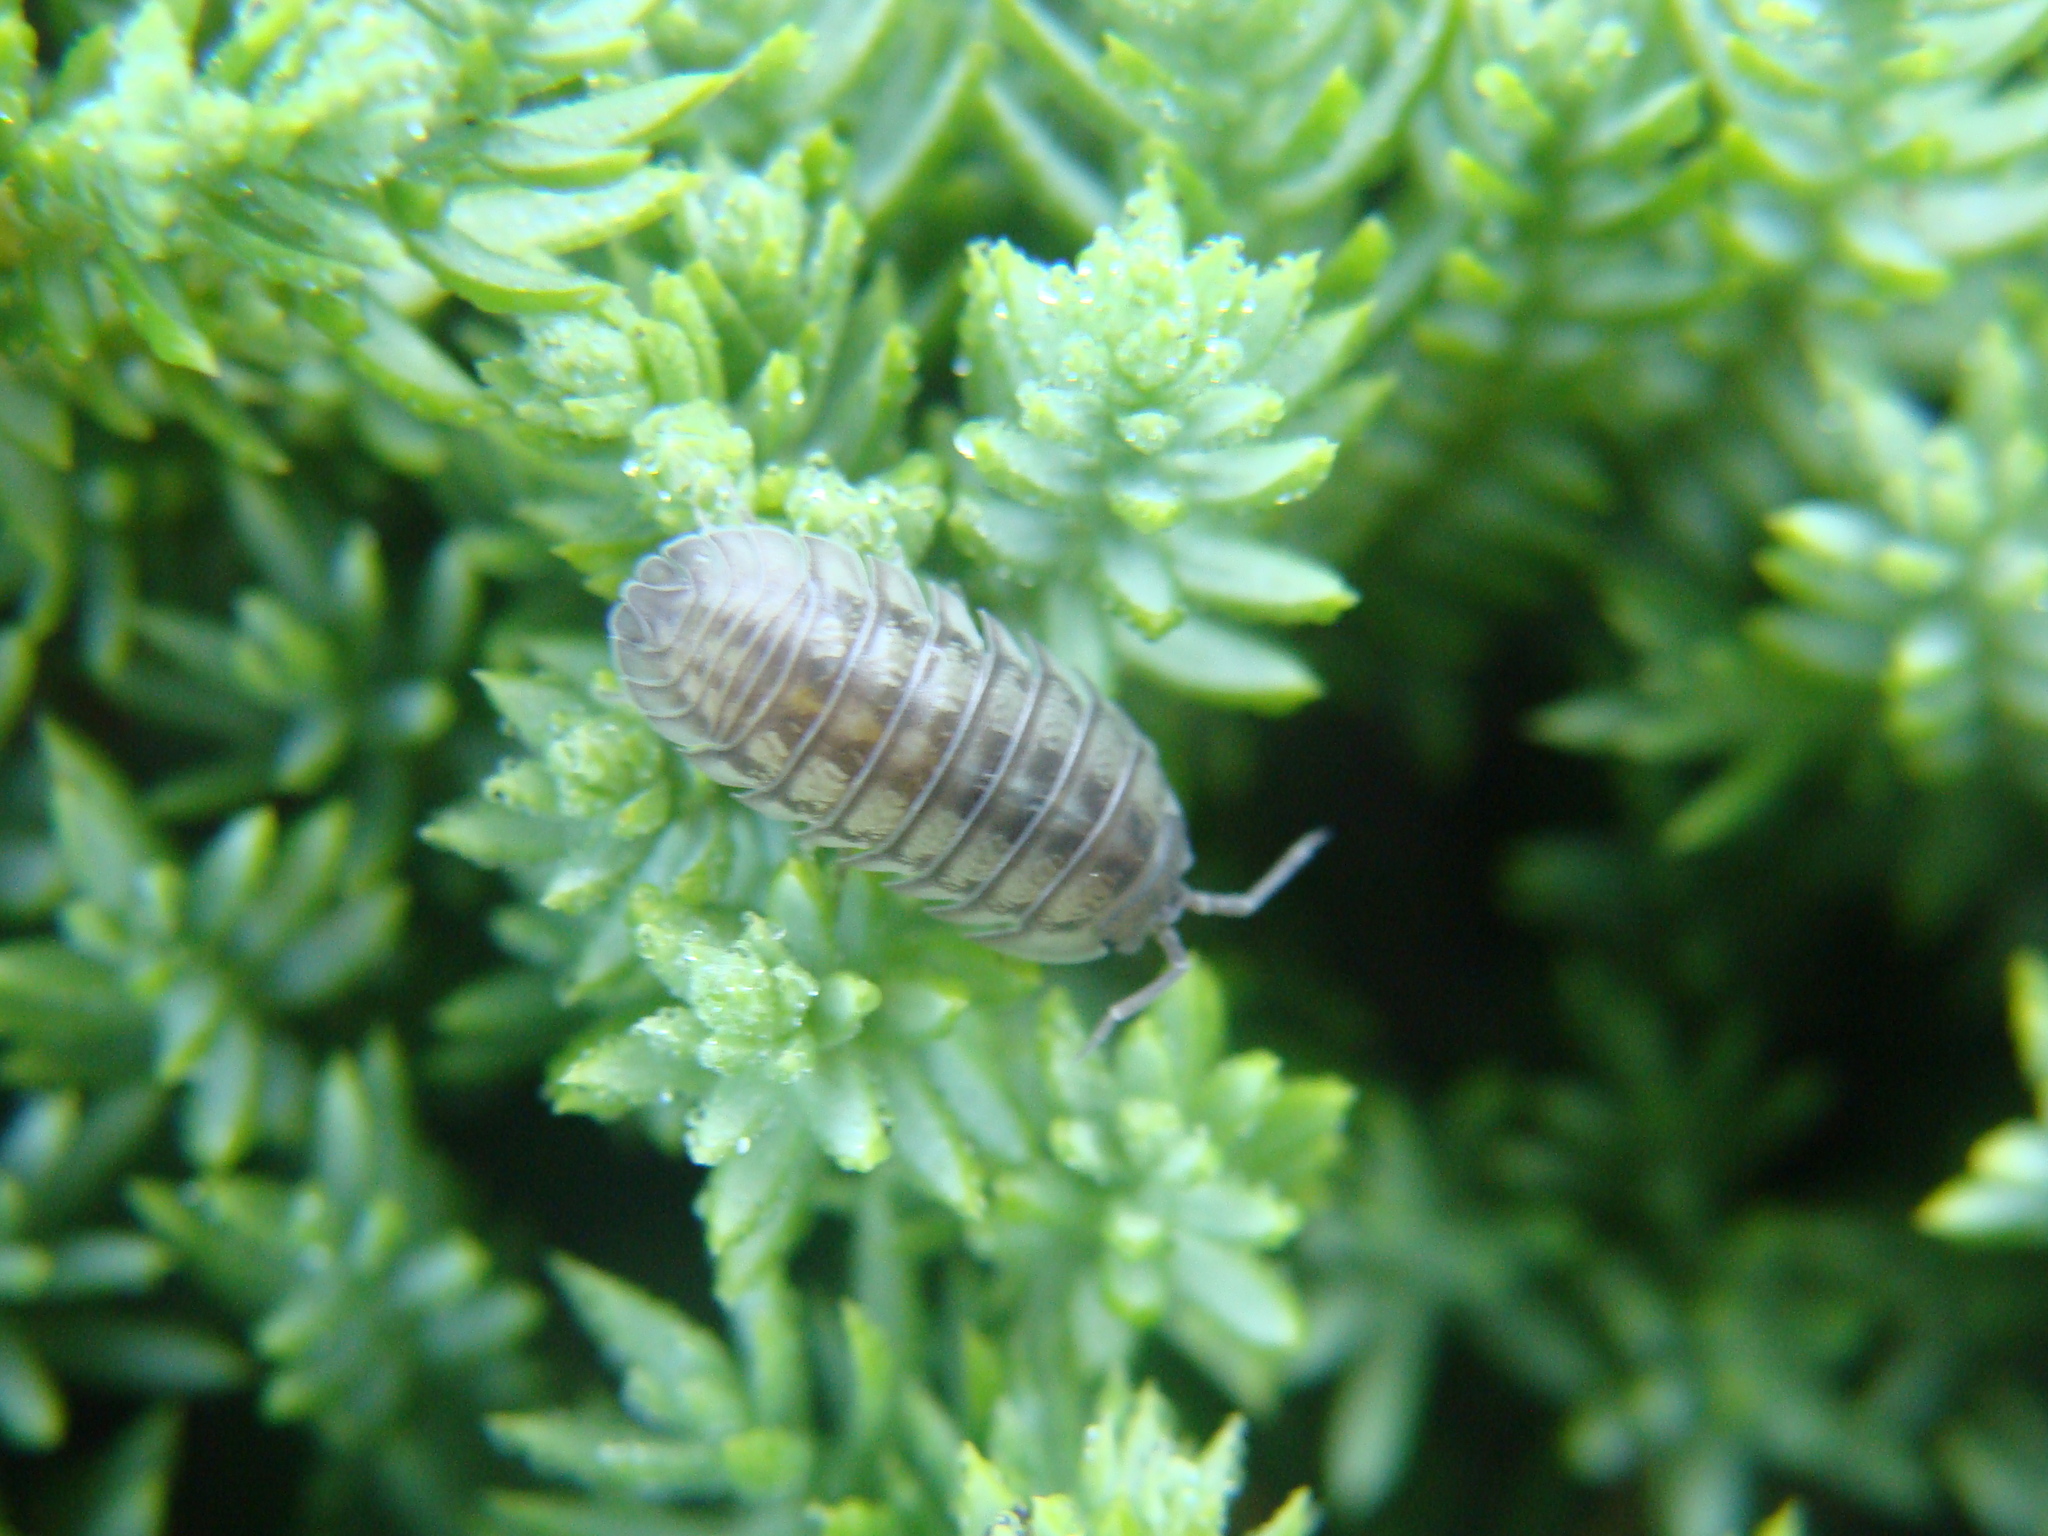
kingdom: Animalia
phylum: Arthropoda
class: Malacostraca
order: Isopoda
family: Armadillidiidae
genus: Armadillidium
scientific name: Armadillidium nasatum
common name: Isopod
